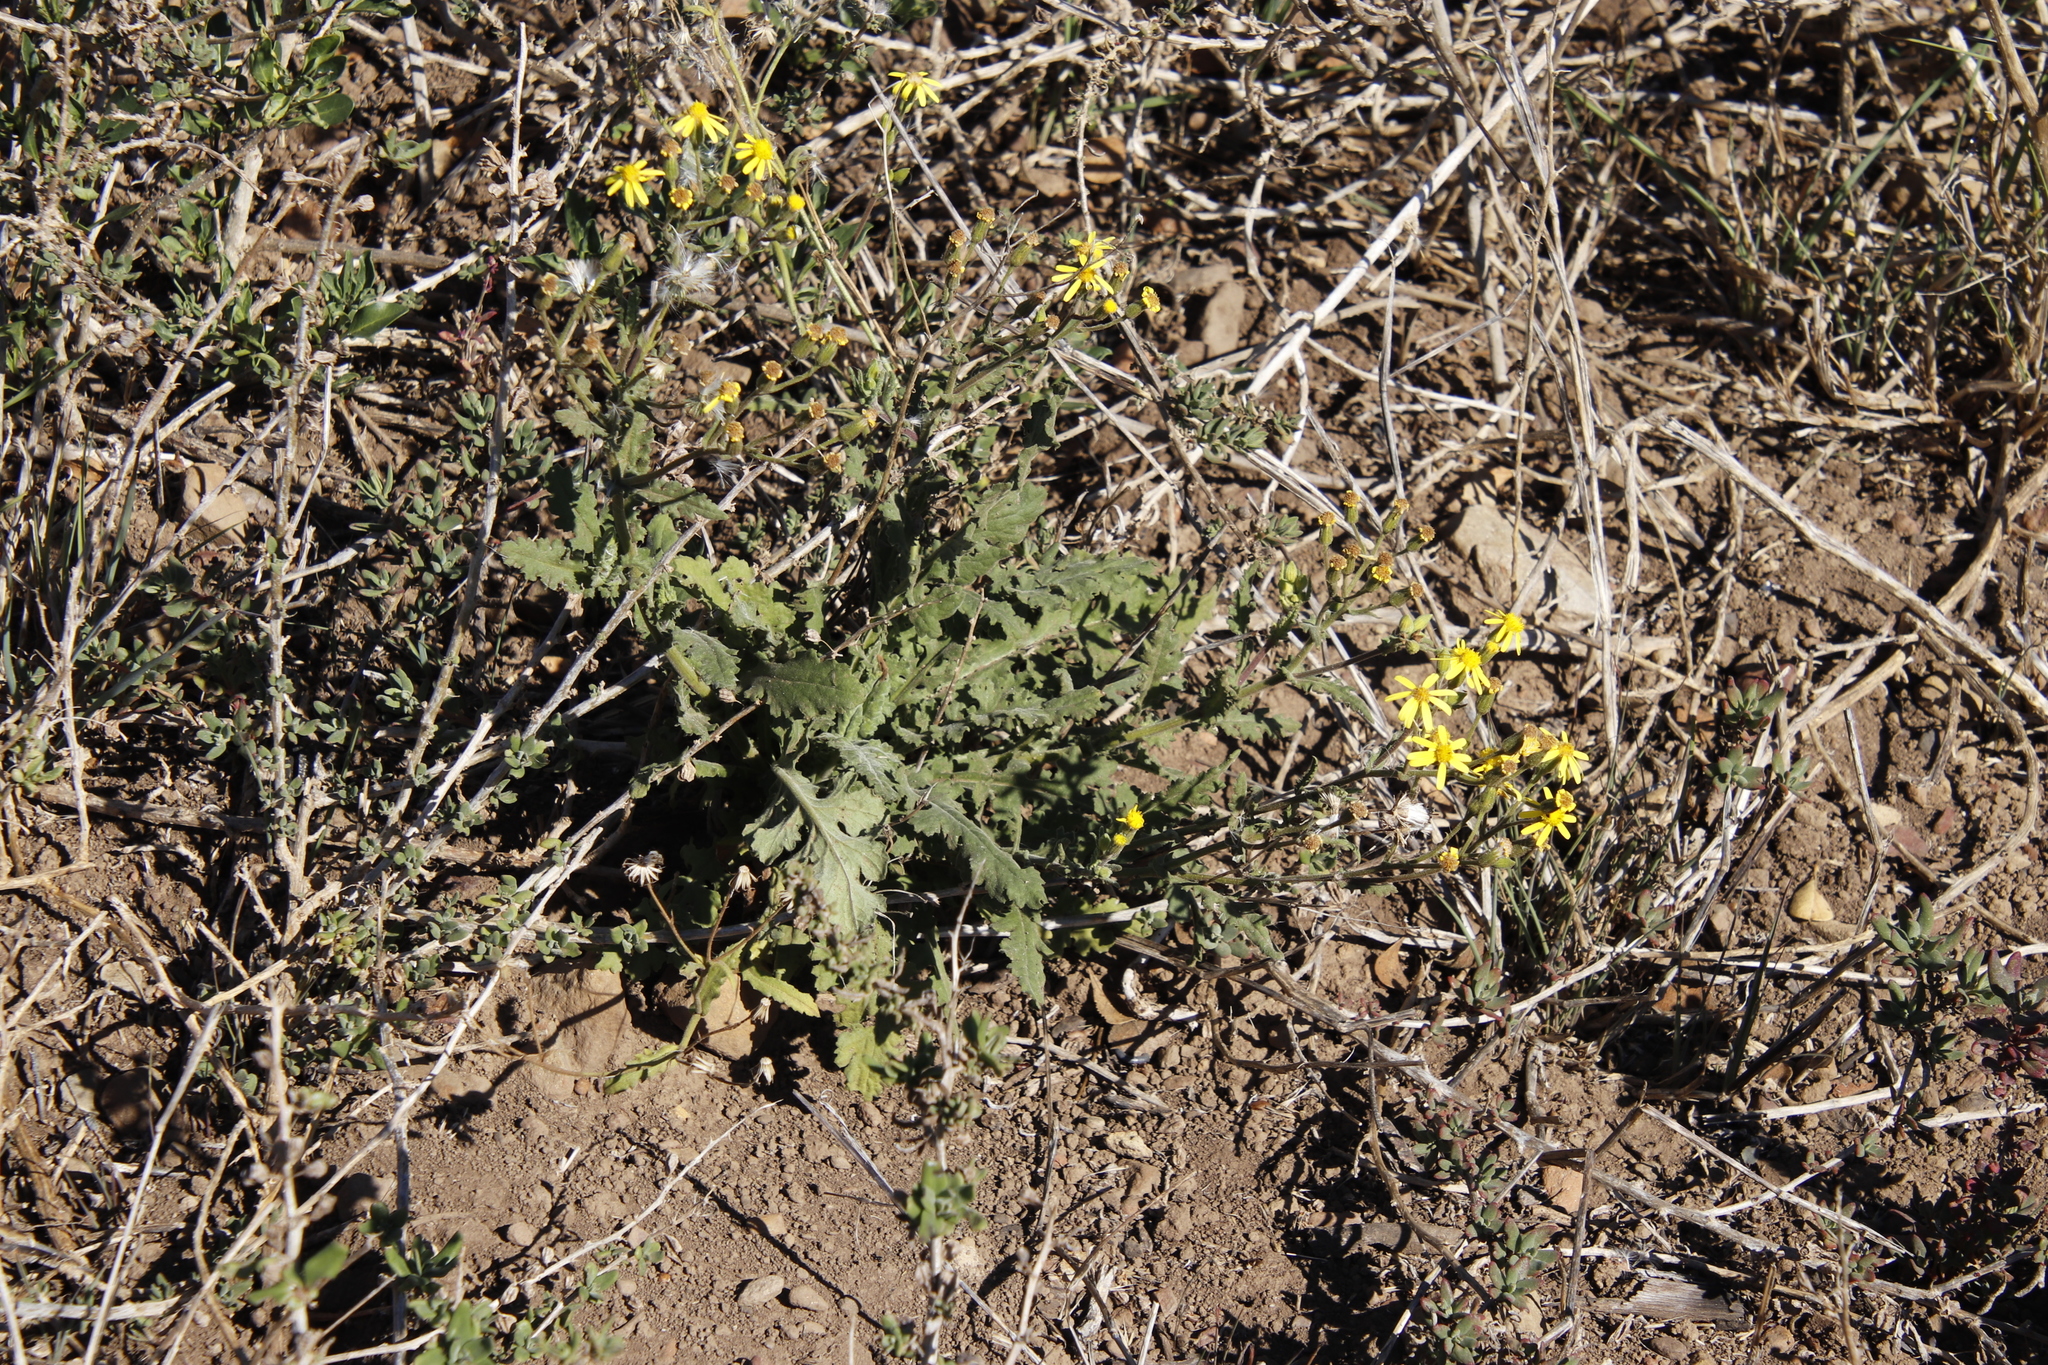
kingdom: Plantae
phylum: Tracheophyta
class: Magnoliopsida
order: Asterales
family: Asteraceae
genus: Senecio
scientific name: Senecio hastatus
